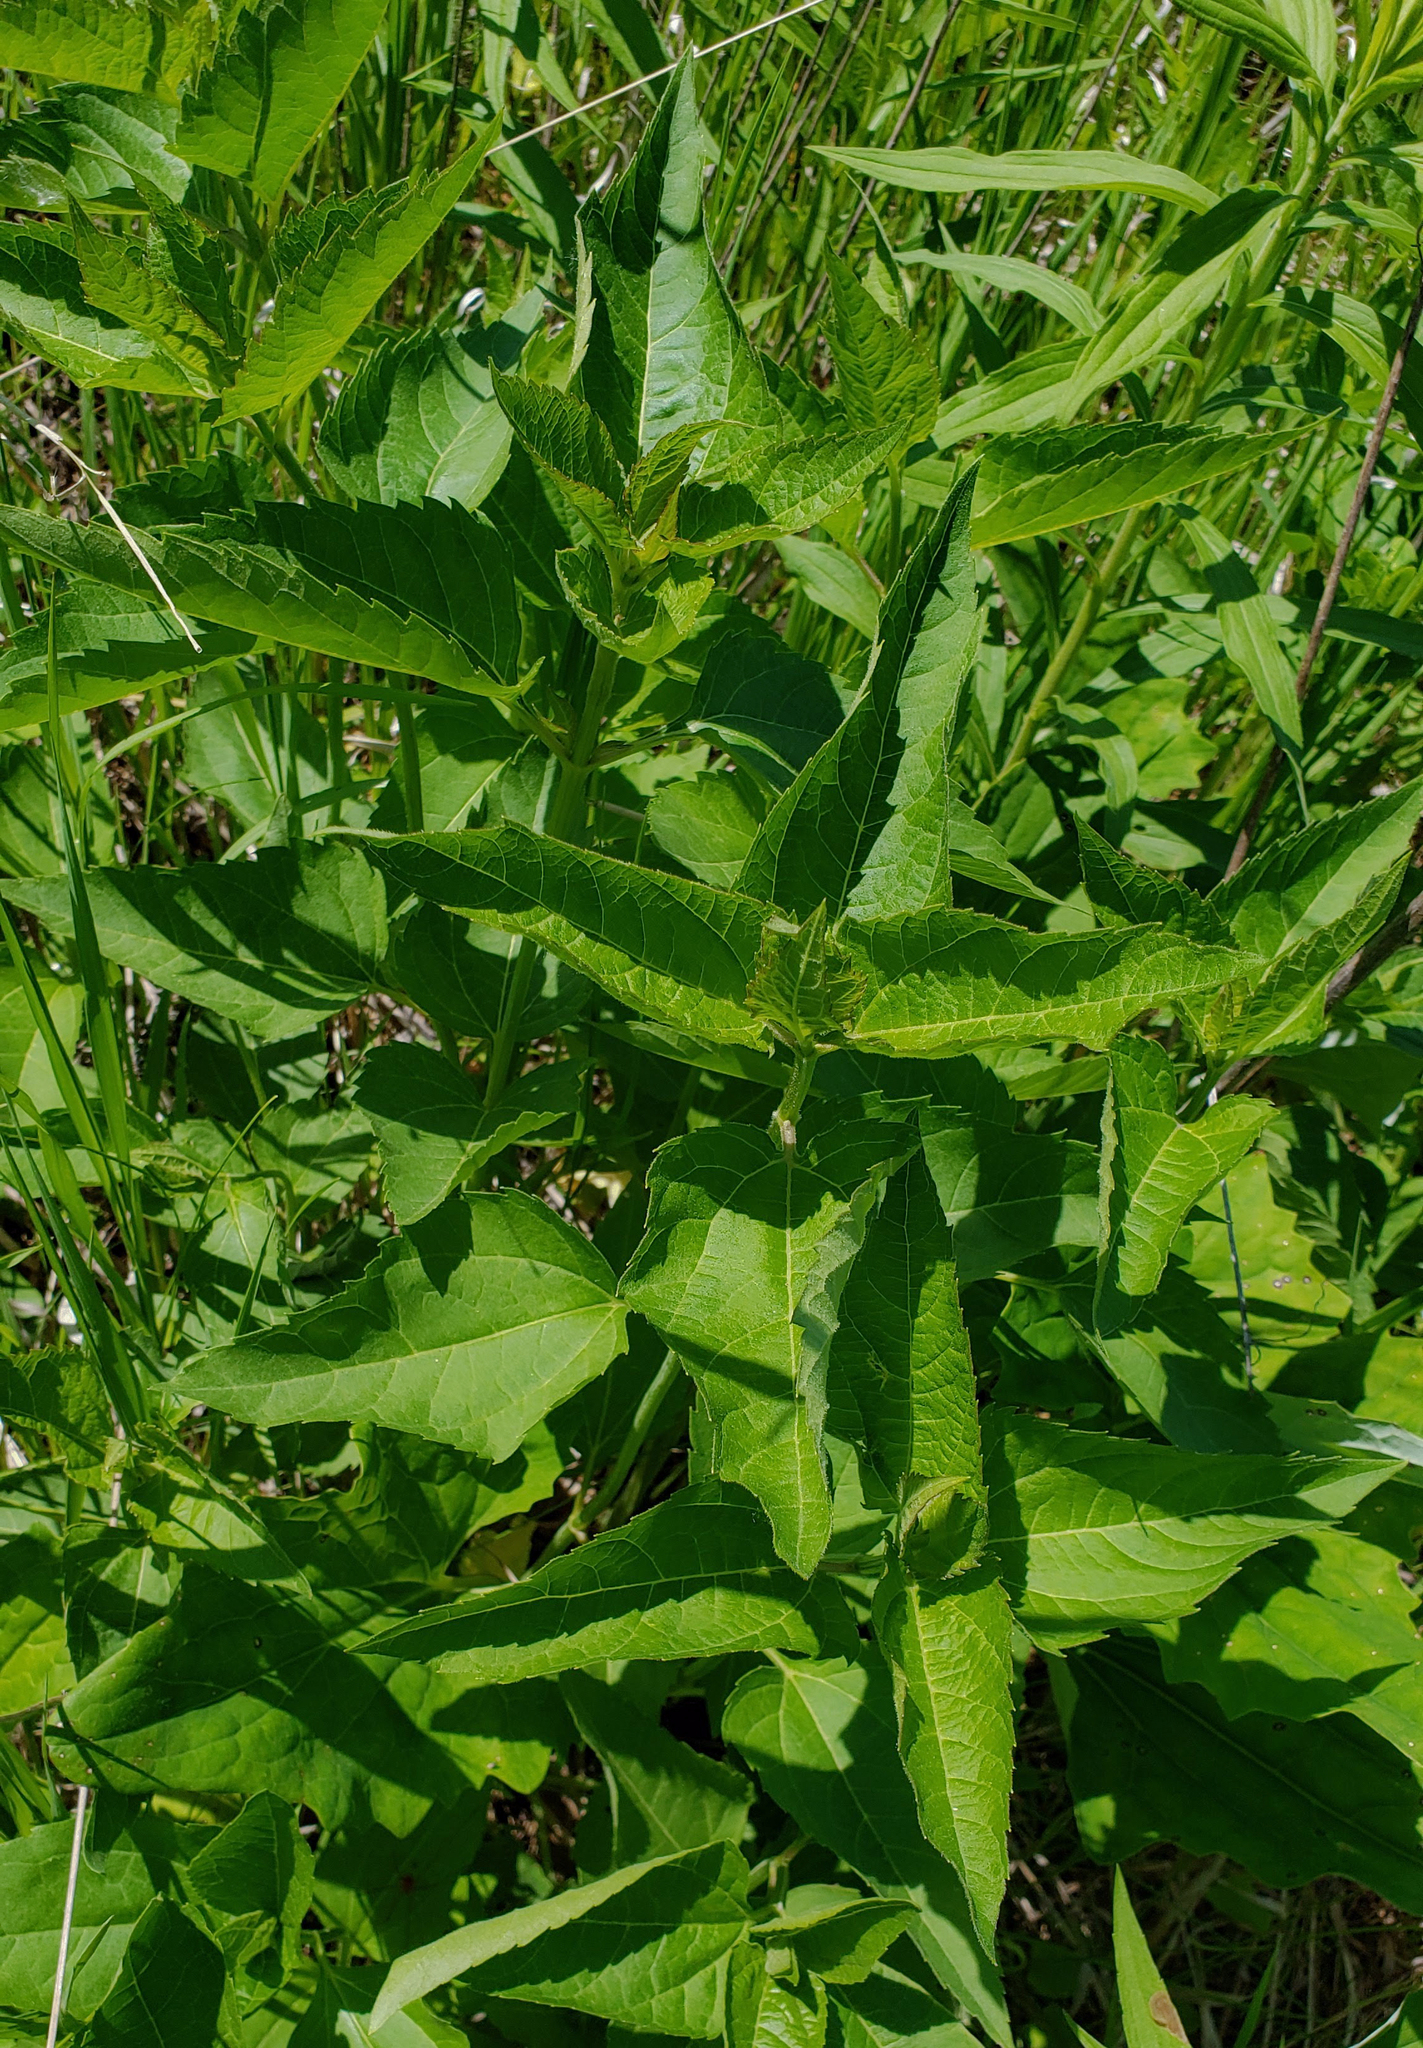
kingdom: Plantae
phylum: Tracheophyta
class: Magnoliopsida
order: Asterales
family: Asteraceae
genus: Heliopsis
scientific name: Heliopsis helianthoides
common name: False sunflower
